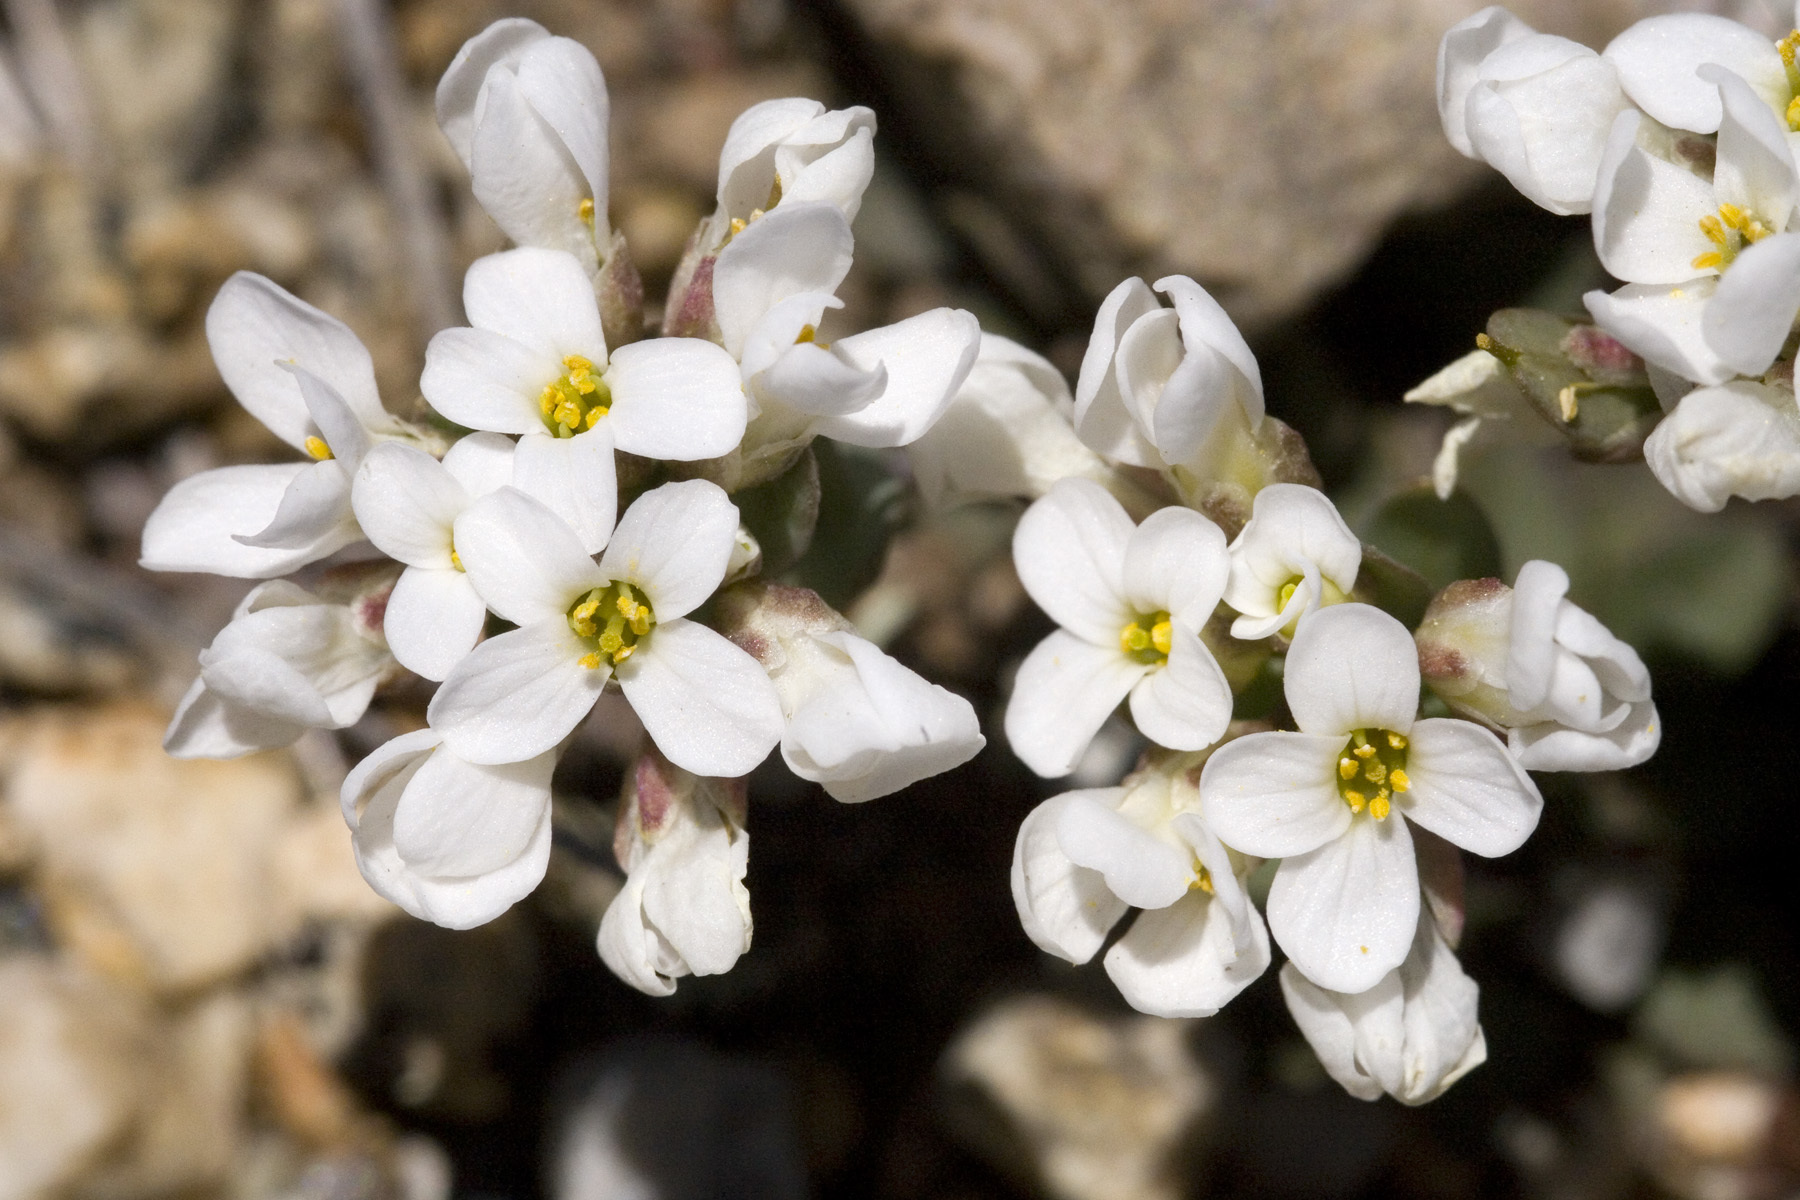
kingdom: Plantae
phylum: Tracheophyta
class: Magnoliopsida
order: Brassicales
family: Brassicaceae
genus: Noccaea
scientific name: Noccaea fendleri
